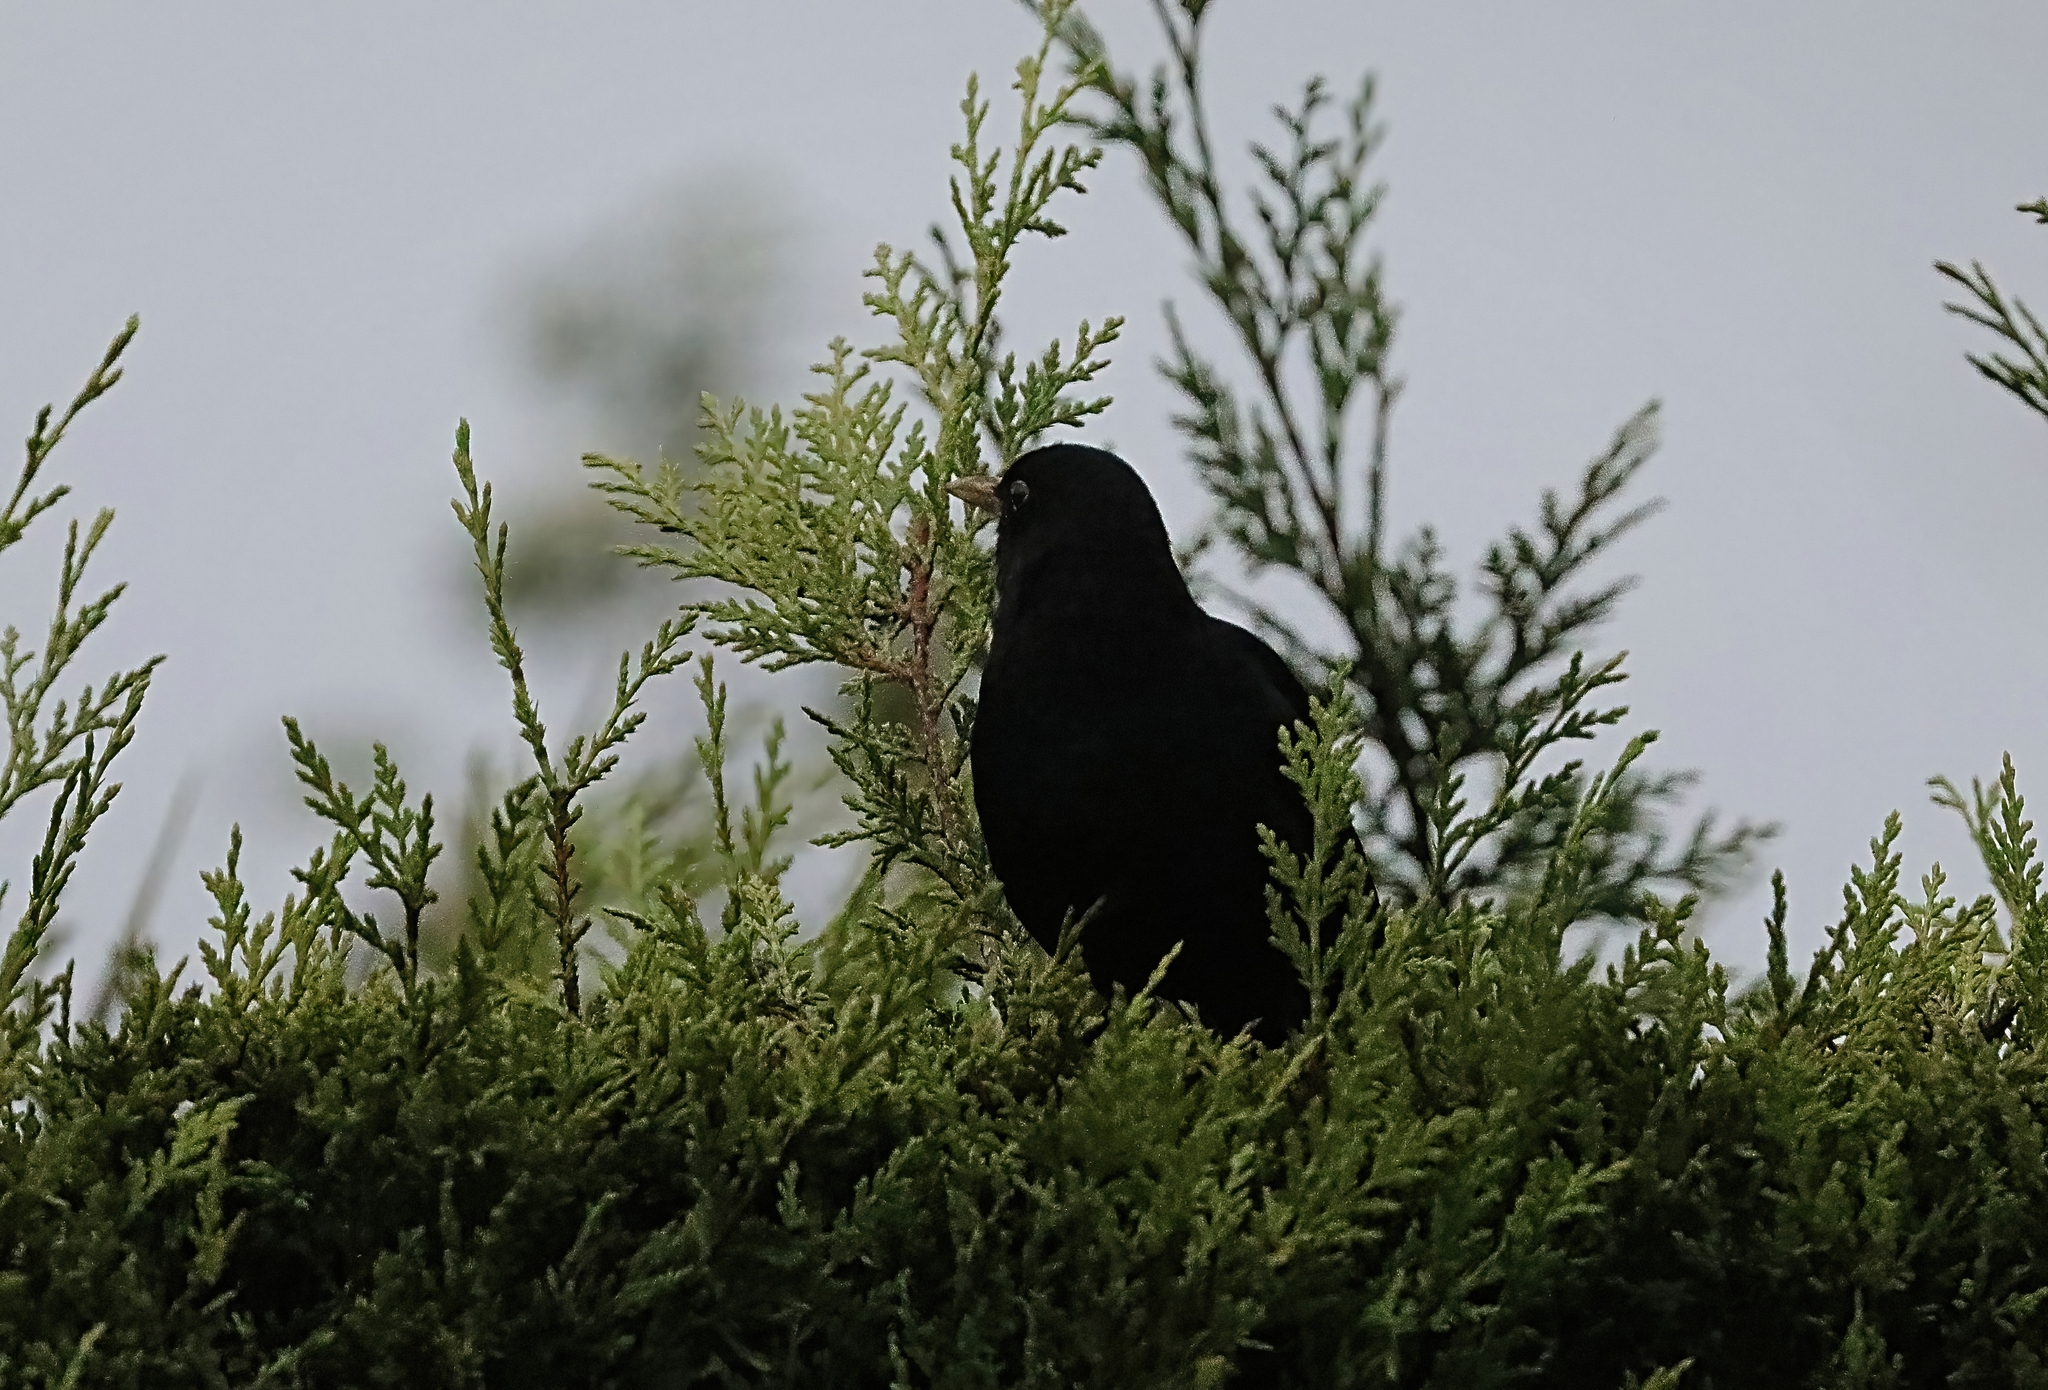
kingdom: Animalia
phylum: Chordata
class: Aves
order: Passeriformes
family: Turdidae
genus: Turdus
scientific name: Turdus merula
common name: Common blackbird
